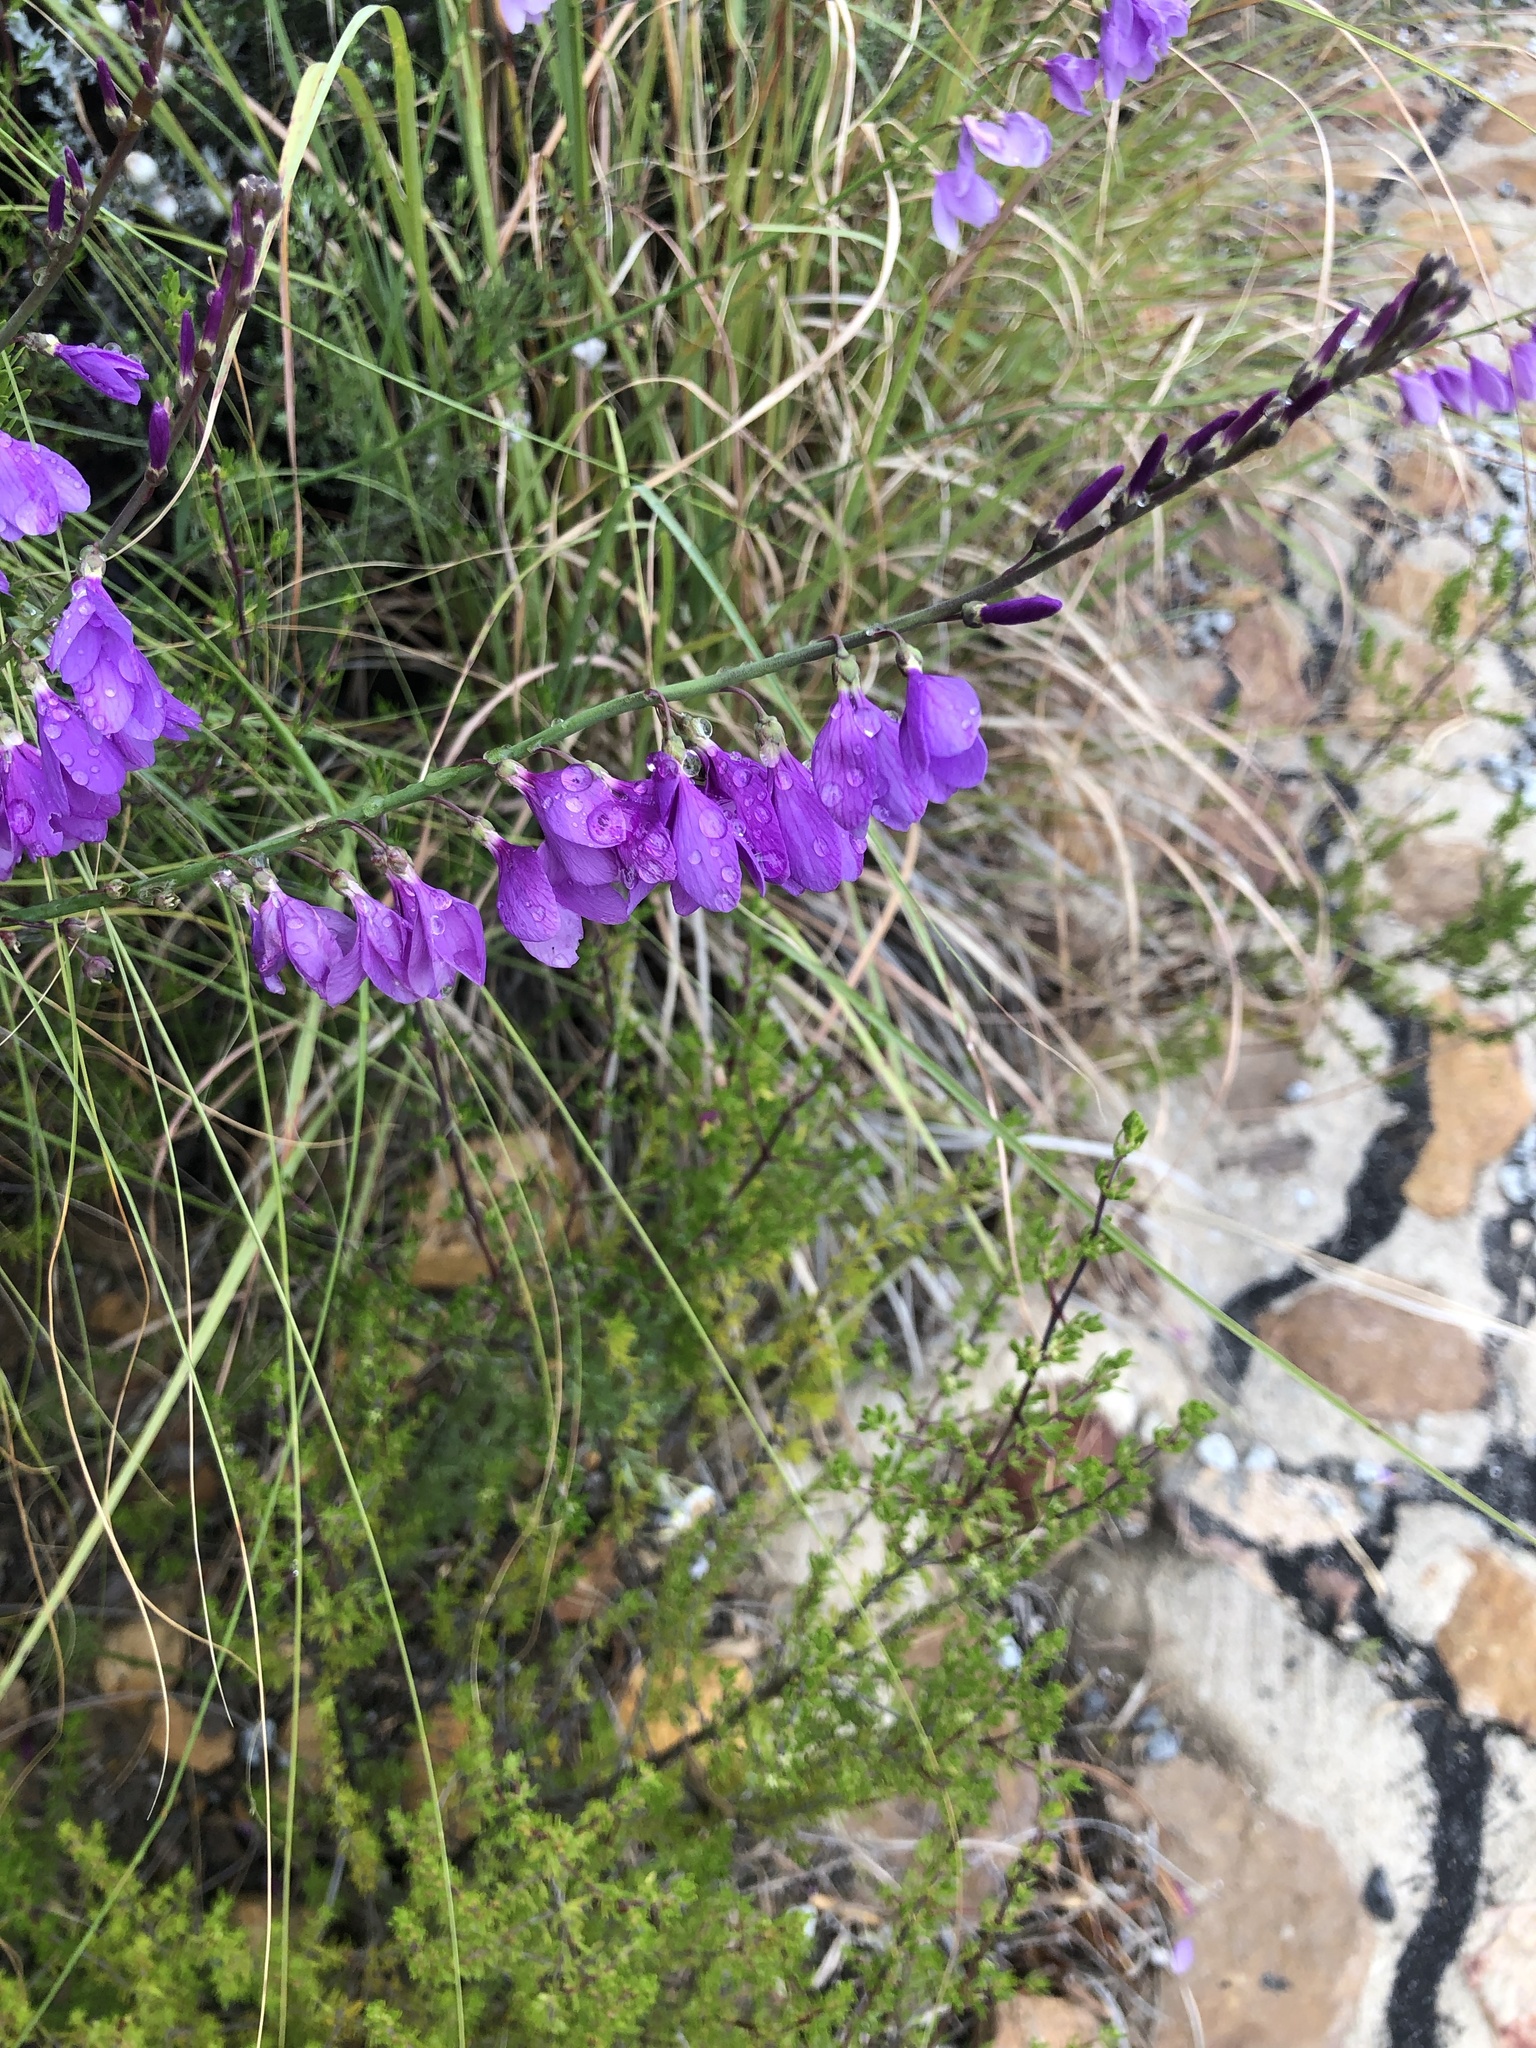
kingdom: Plantae
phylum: Tracheophyta
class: Magnoliopsida
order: Brassicales
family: Brassicaceae
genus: Heliophila
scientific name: Heliophila juncea
